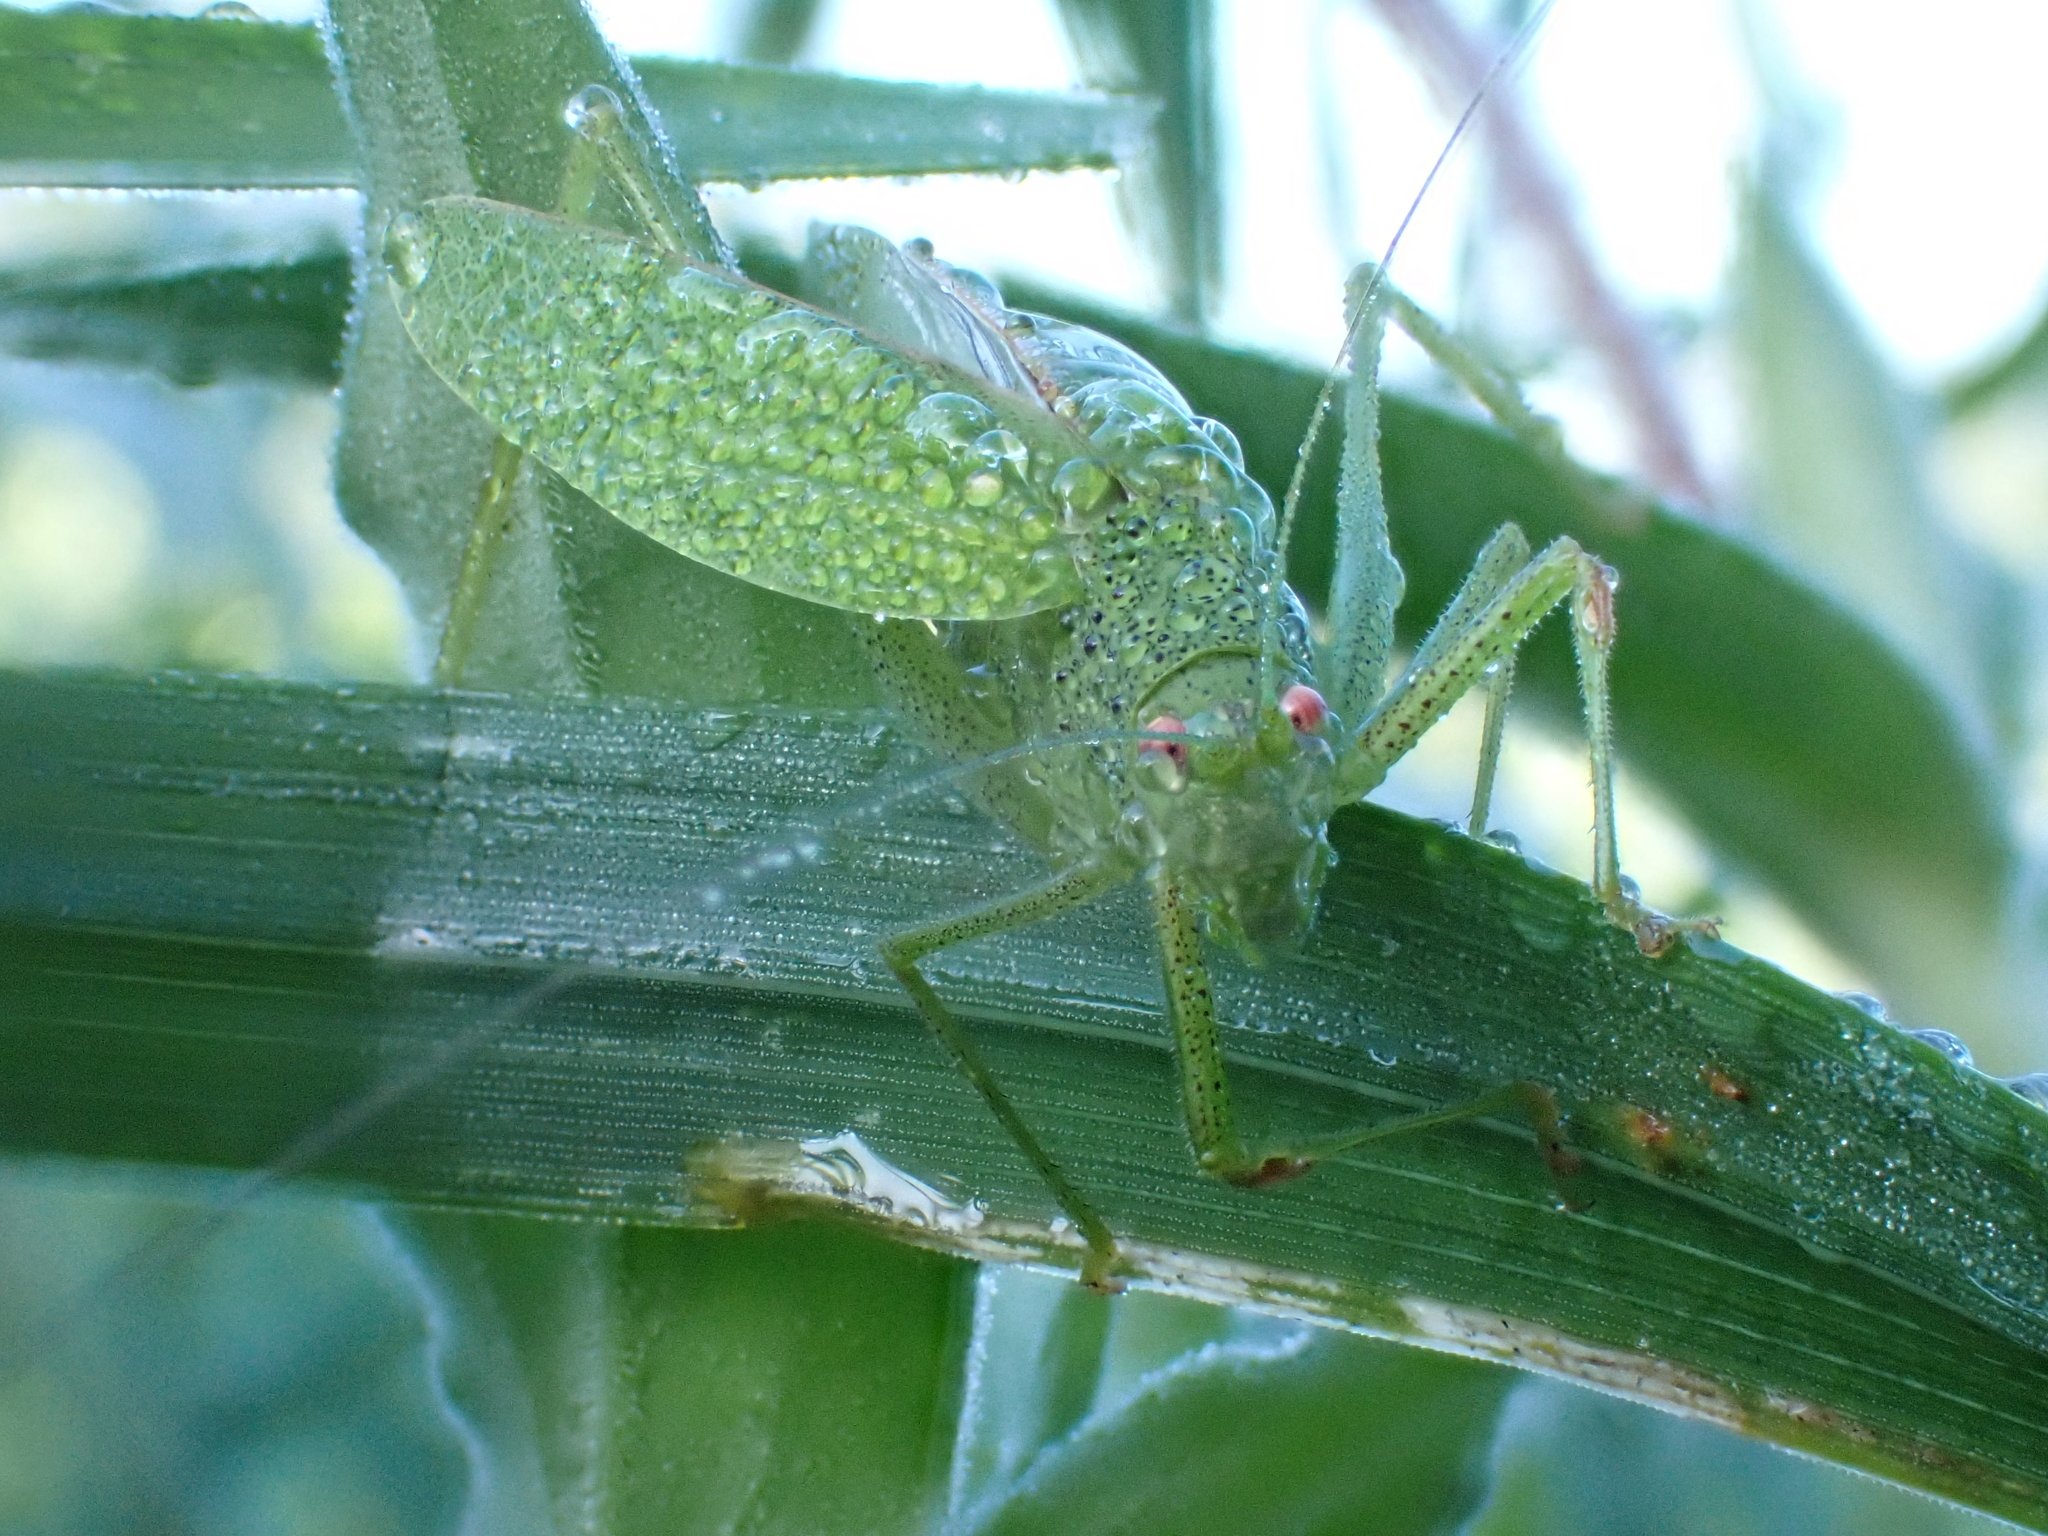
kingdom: Animalia
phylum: Arthropoda
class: Insecta
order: Orthoptera
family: Tettigoniidae
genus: Phaneroptera
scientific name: Phaneroptera nana
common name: Southern sickle bush-cricket
